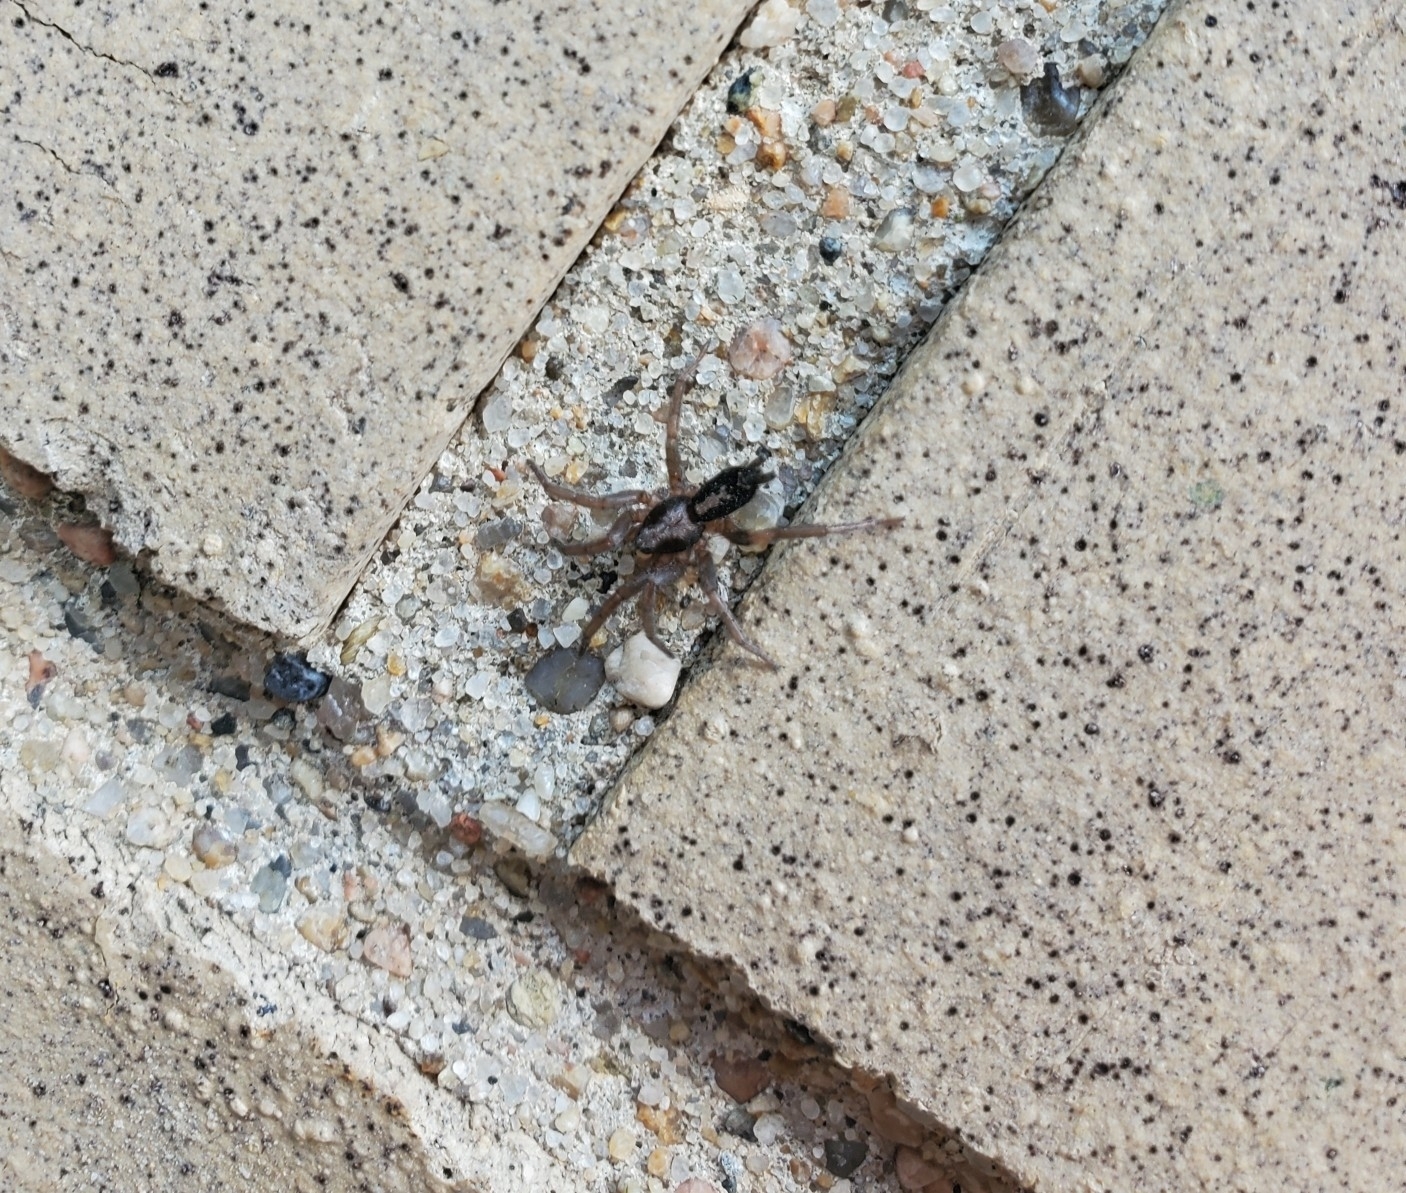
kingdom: Animalia
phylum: Arthropoda
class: Arachnida
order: Araneae
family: Gnaphosidae
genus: Herpyllus
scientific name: Herpyllus ecclesiasticus
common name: Eastern parson spider
